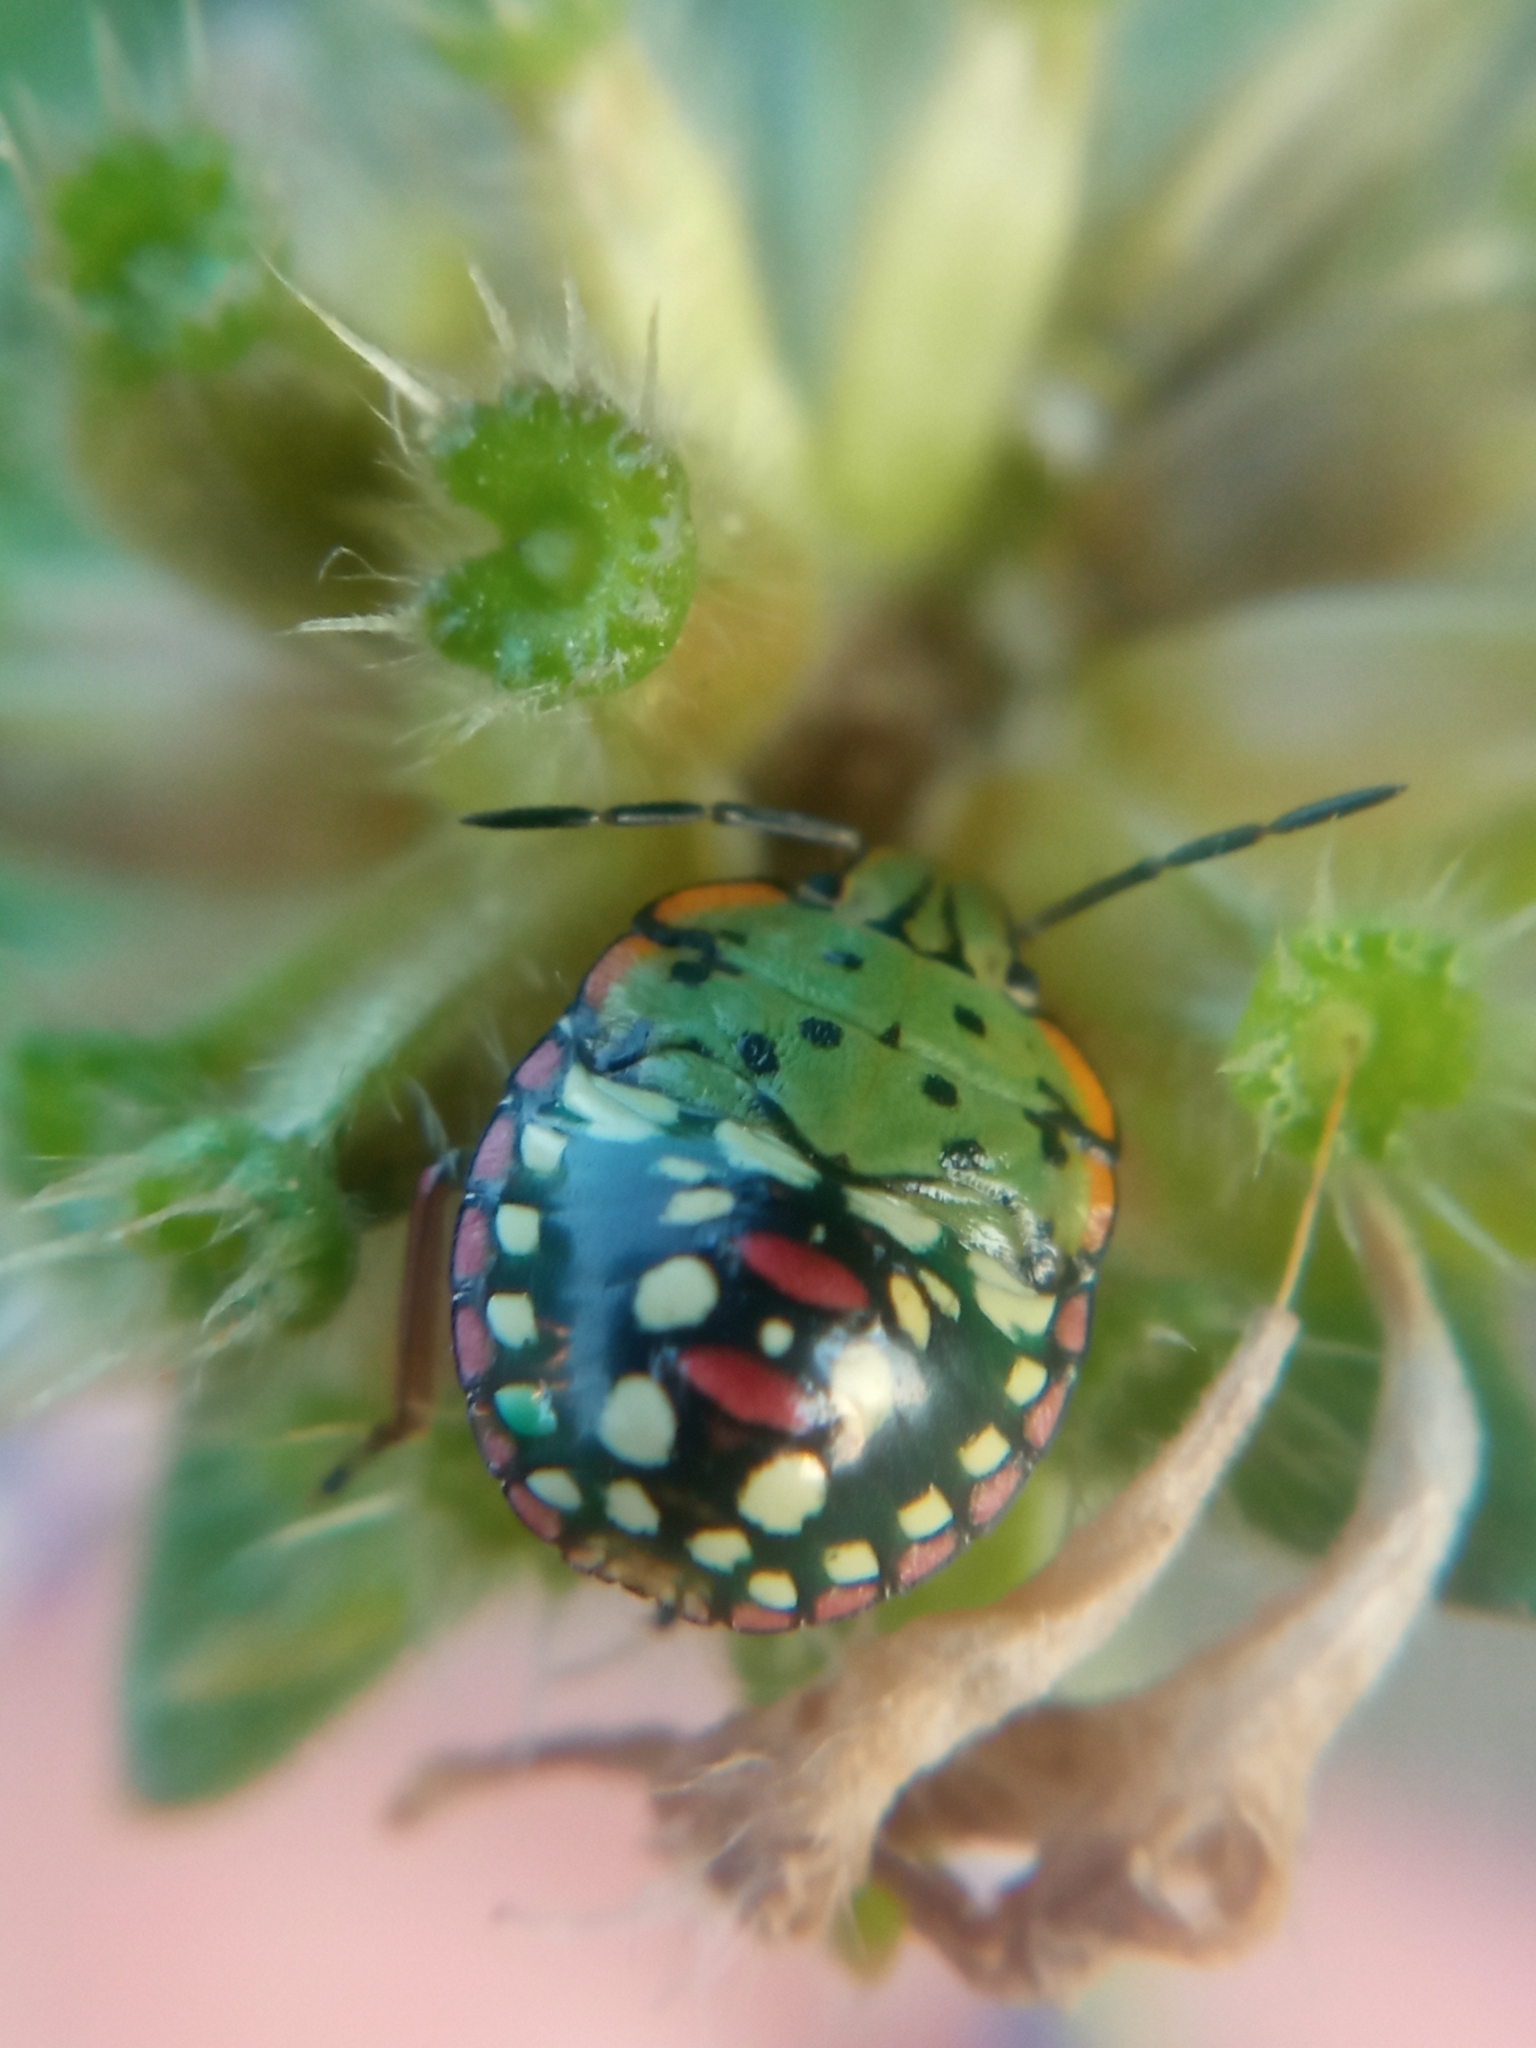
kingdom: Animalia
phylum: Arthropoda
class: Insecta
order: Hemiptera
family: Pentatomidae
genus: Nezara
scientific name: Nezara viridula
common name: Southern green stink bug
